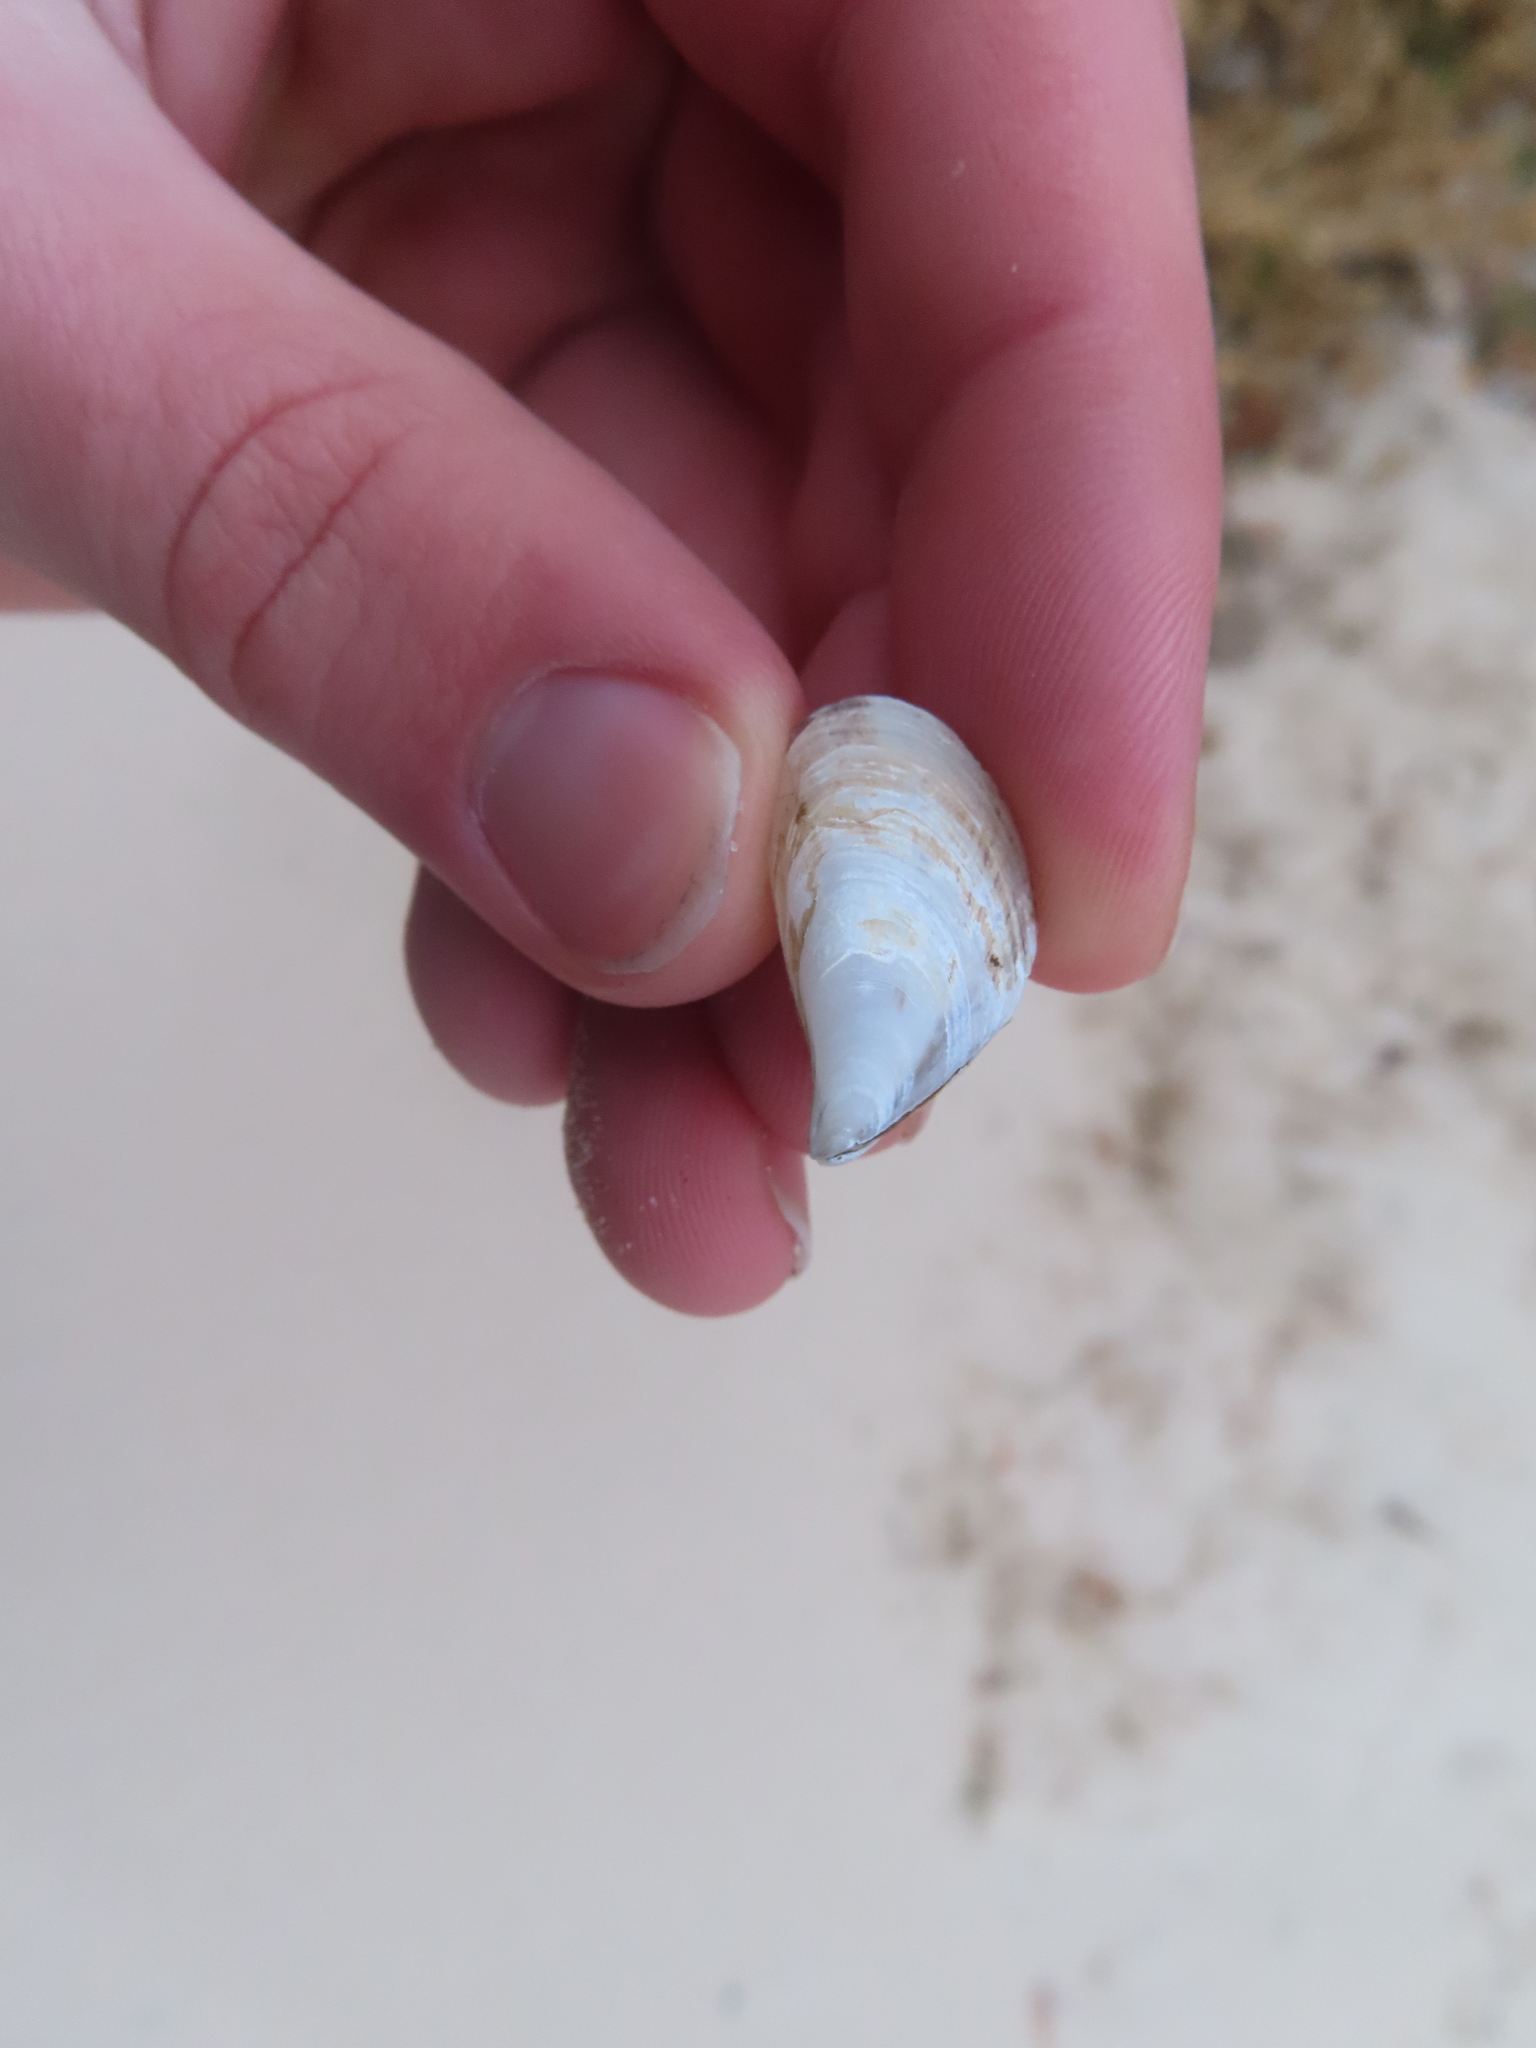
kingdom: Animalia
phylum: Mollusca
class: Bivalvia
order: Myida
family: Dreissenidae
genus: Dreissena
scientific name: Dreissena bugensis
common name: Quagga mussel
